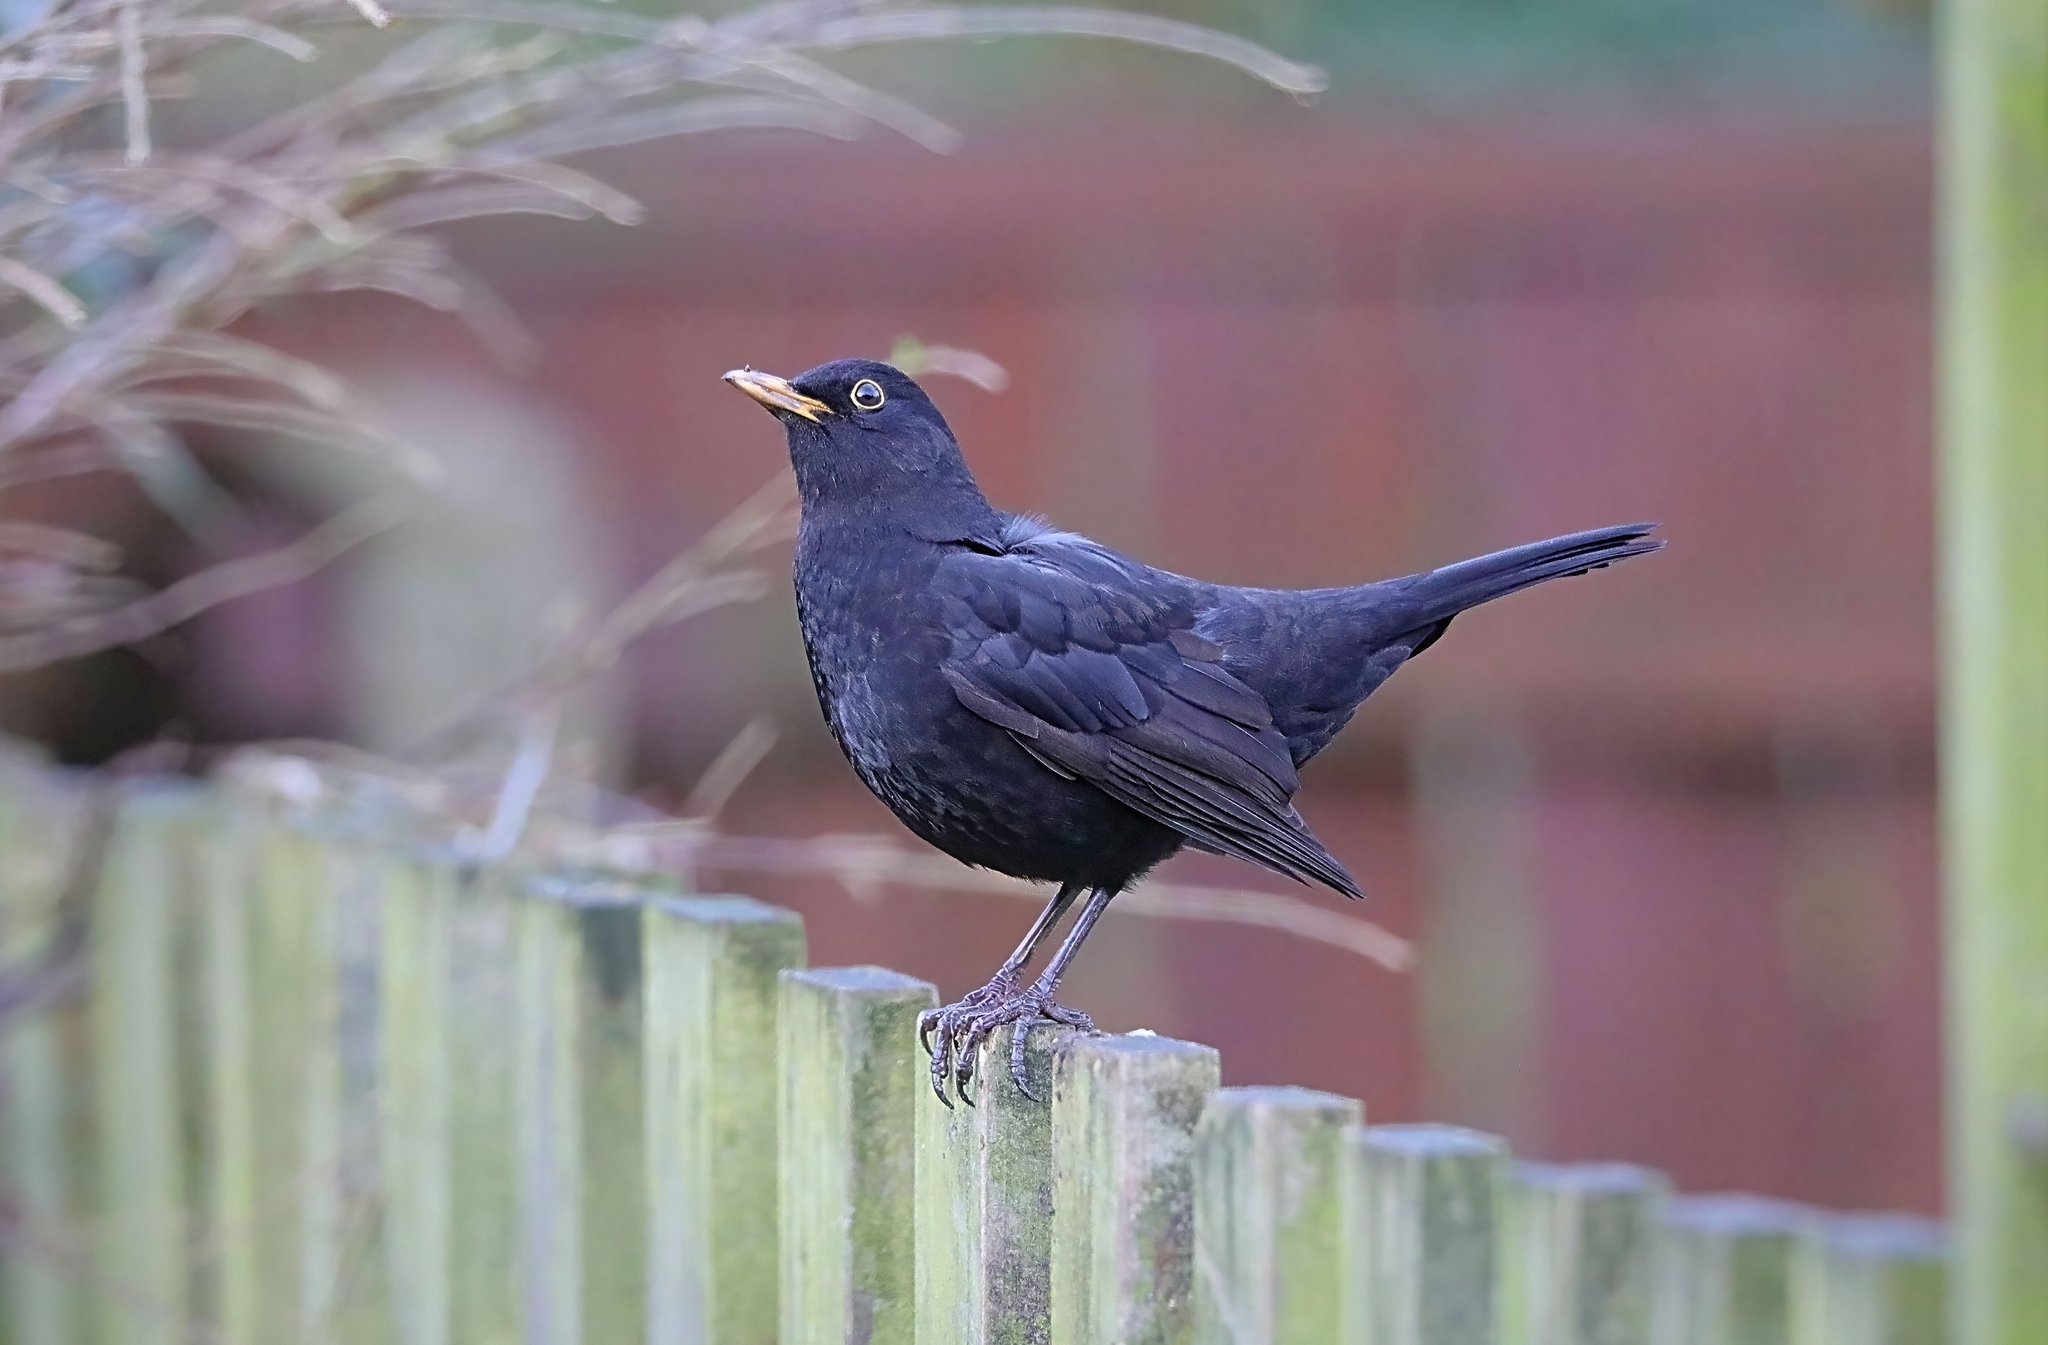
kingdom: Animalia
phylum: Chordata
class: Aves
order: Passeriformes
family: Turdidae
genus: Turdus
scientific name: Turdus merula
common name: Common blackbird
